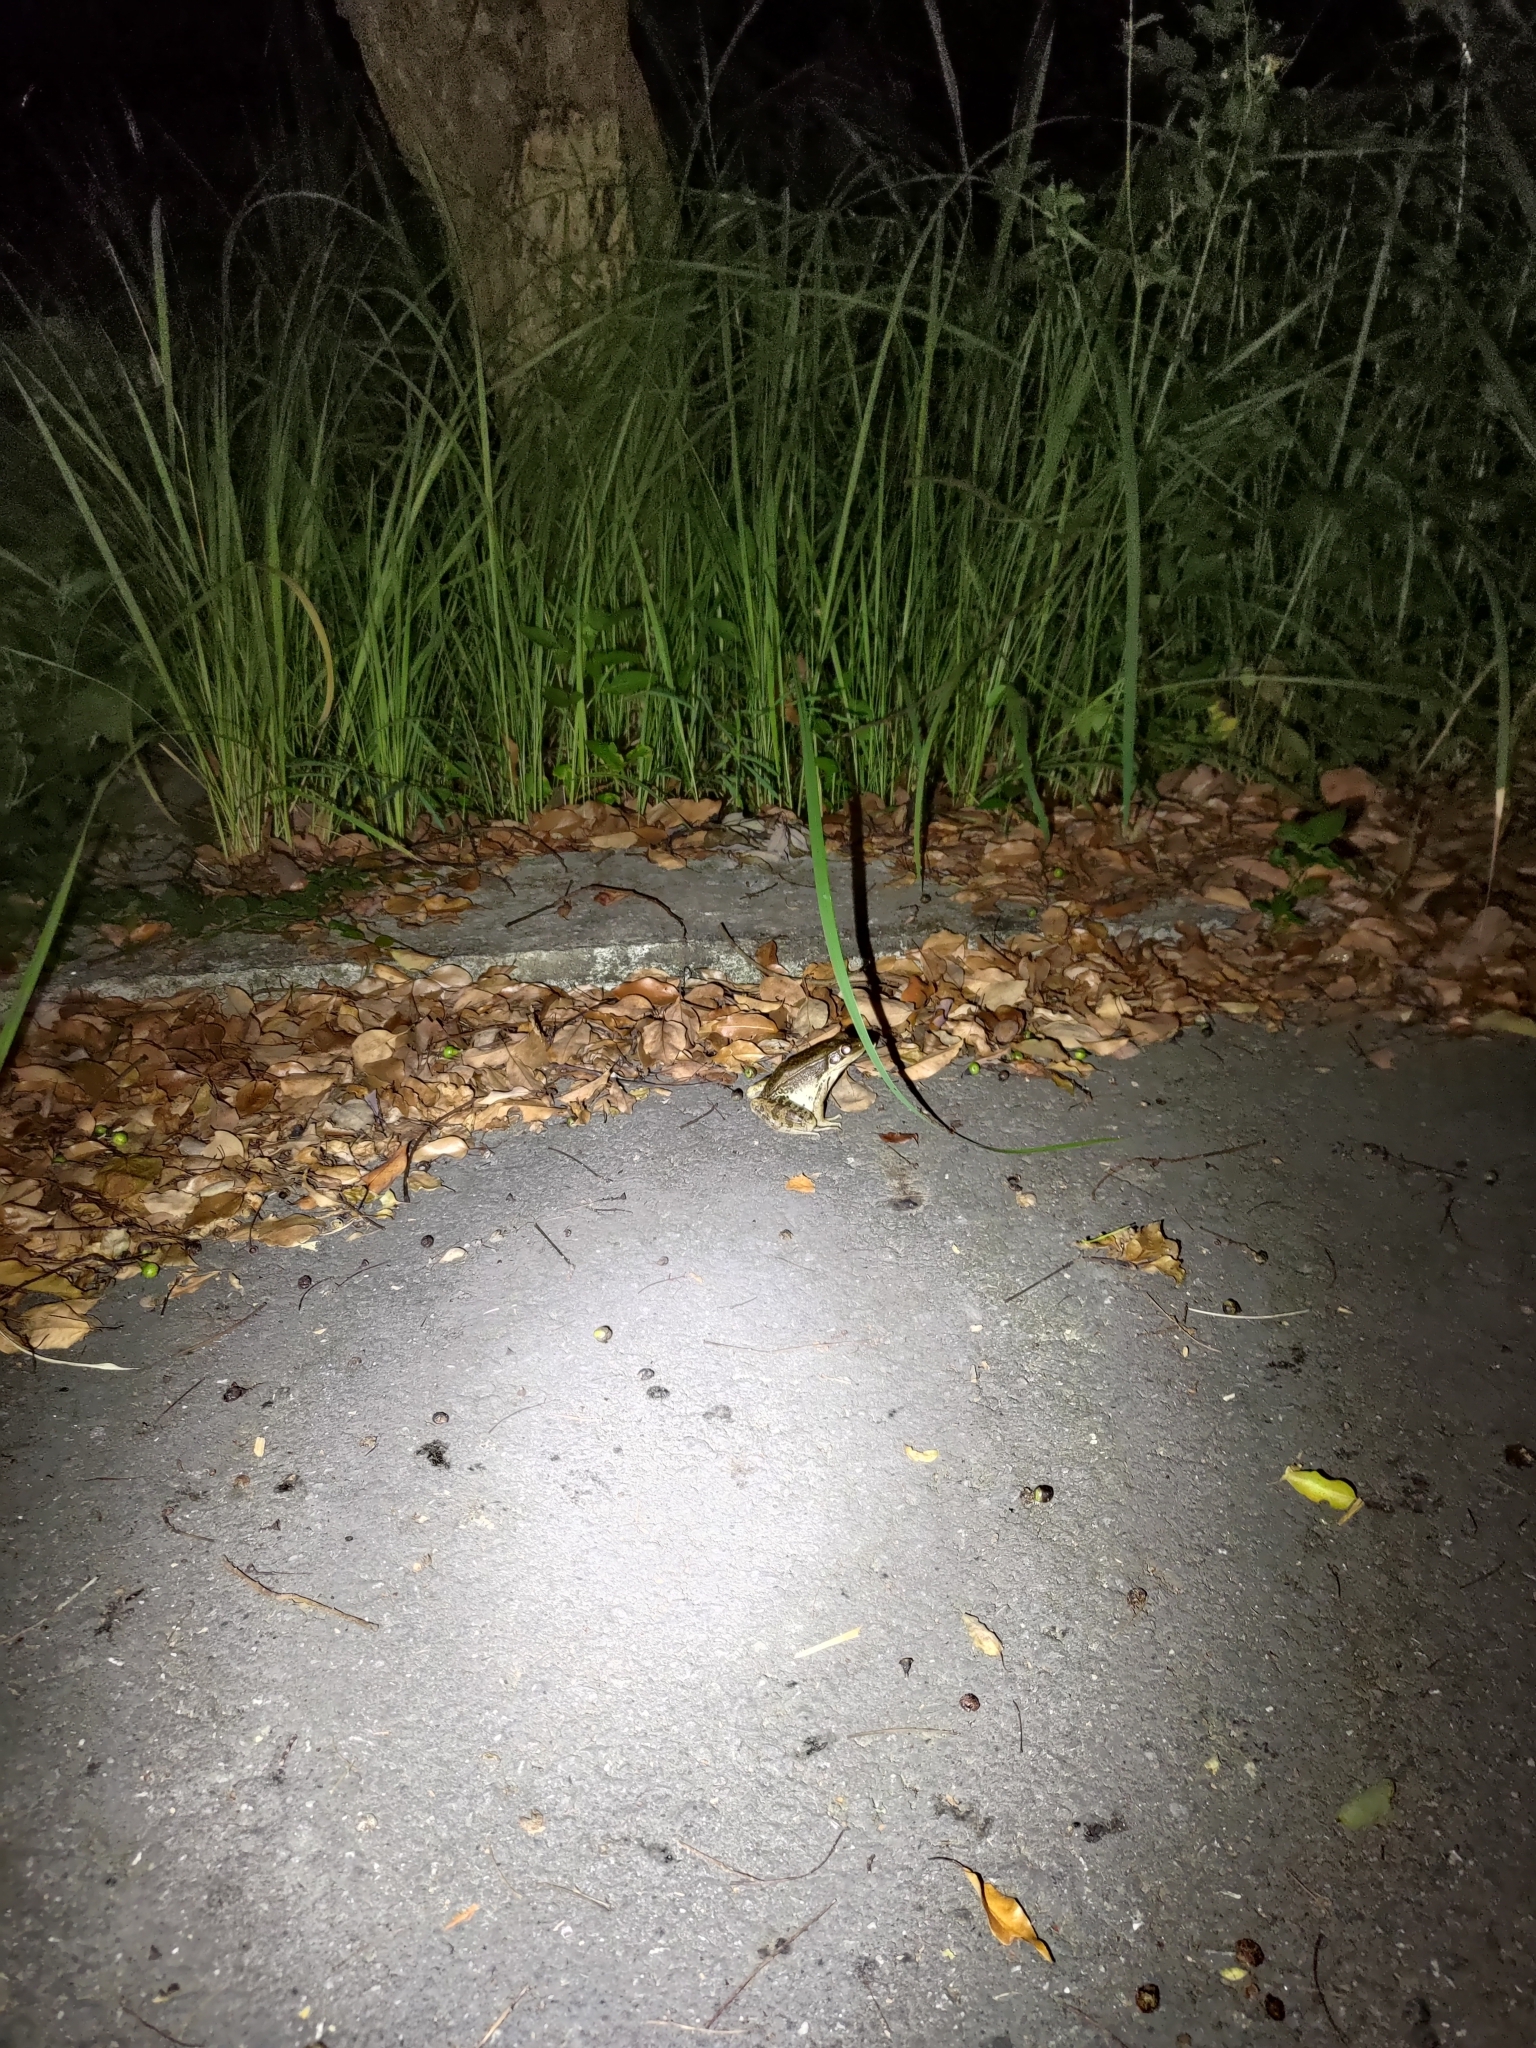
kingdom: Animalia
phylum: Chordata
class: Amphibia
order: Anura
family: Ranidae
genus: Sylvirana
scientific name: Sylvirana guentheri
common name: Guenther's amoy frog
